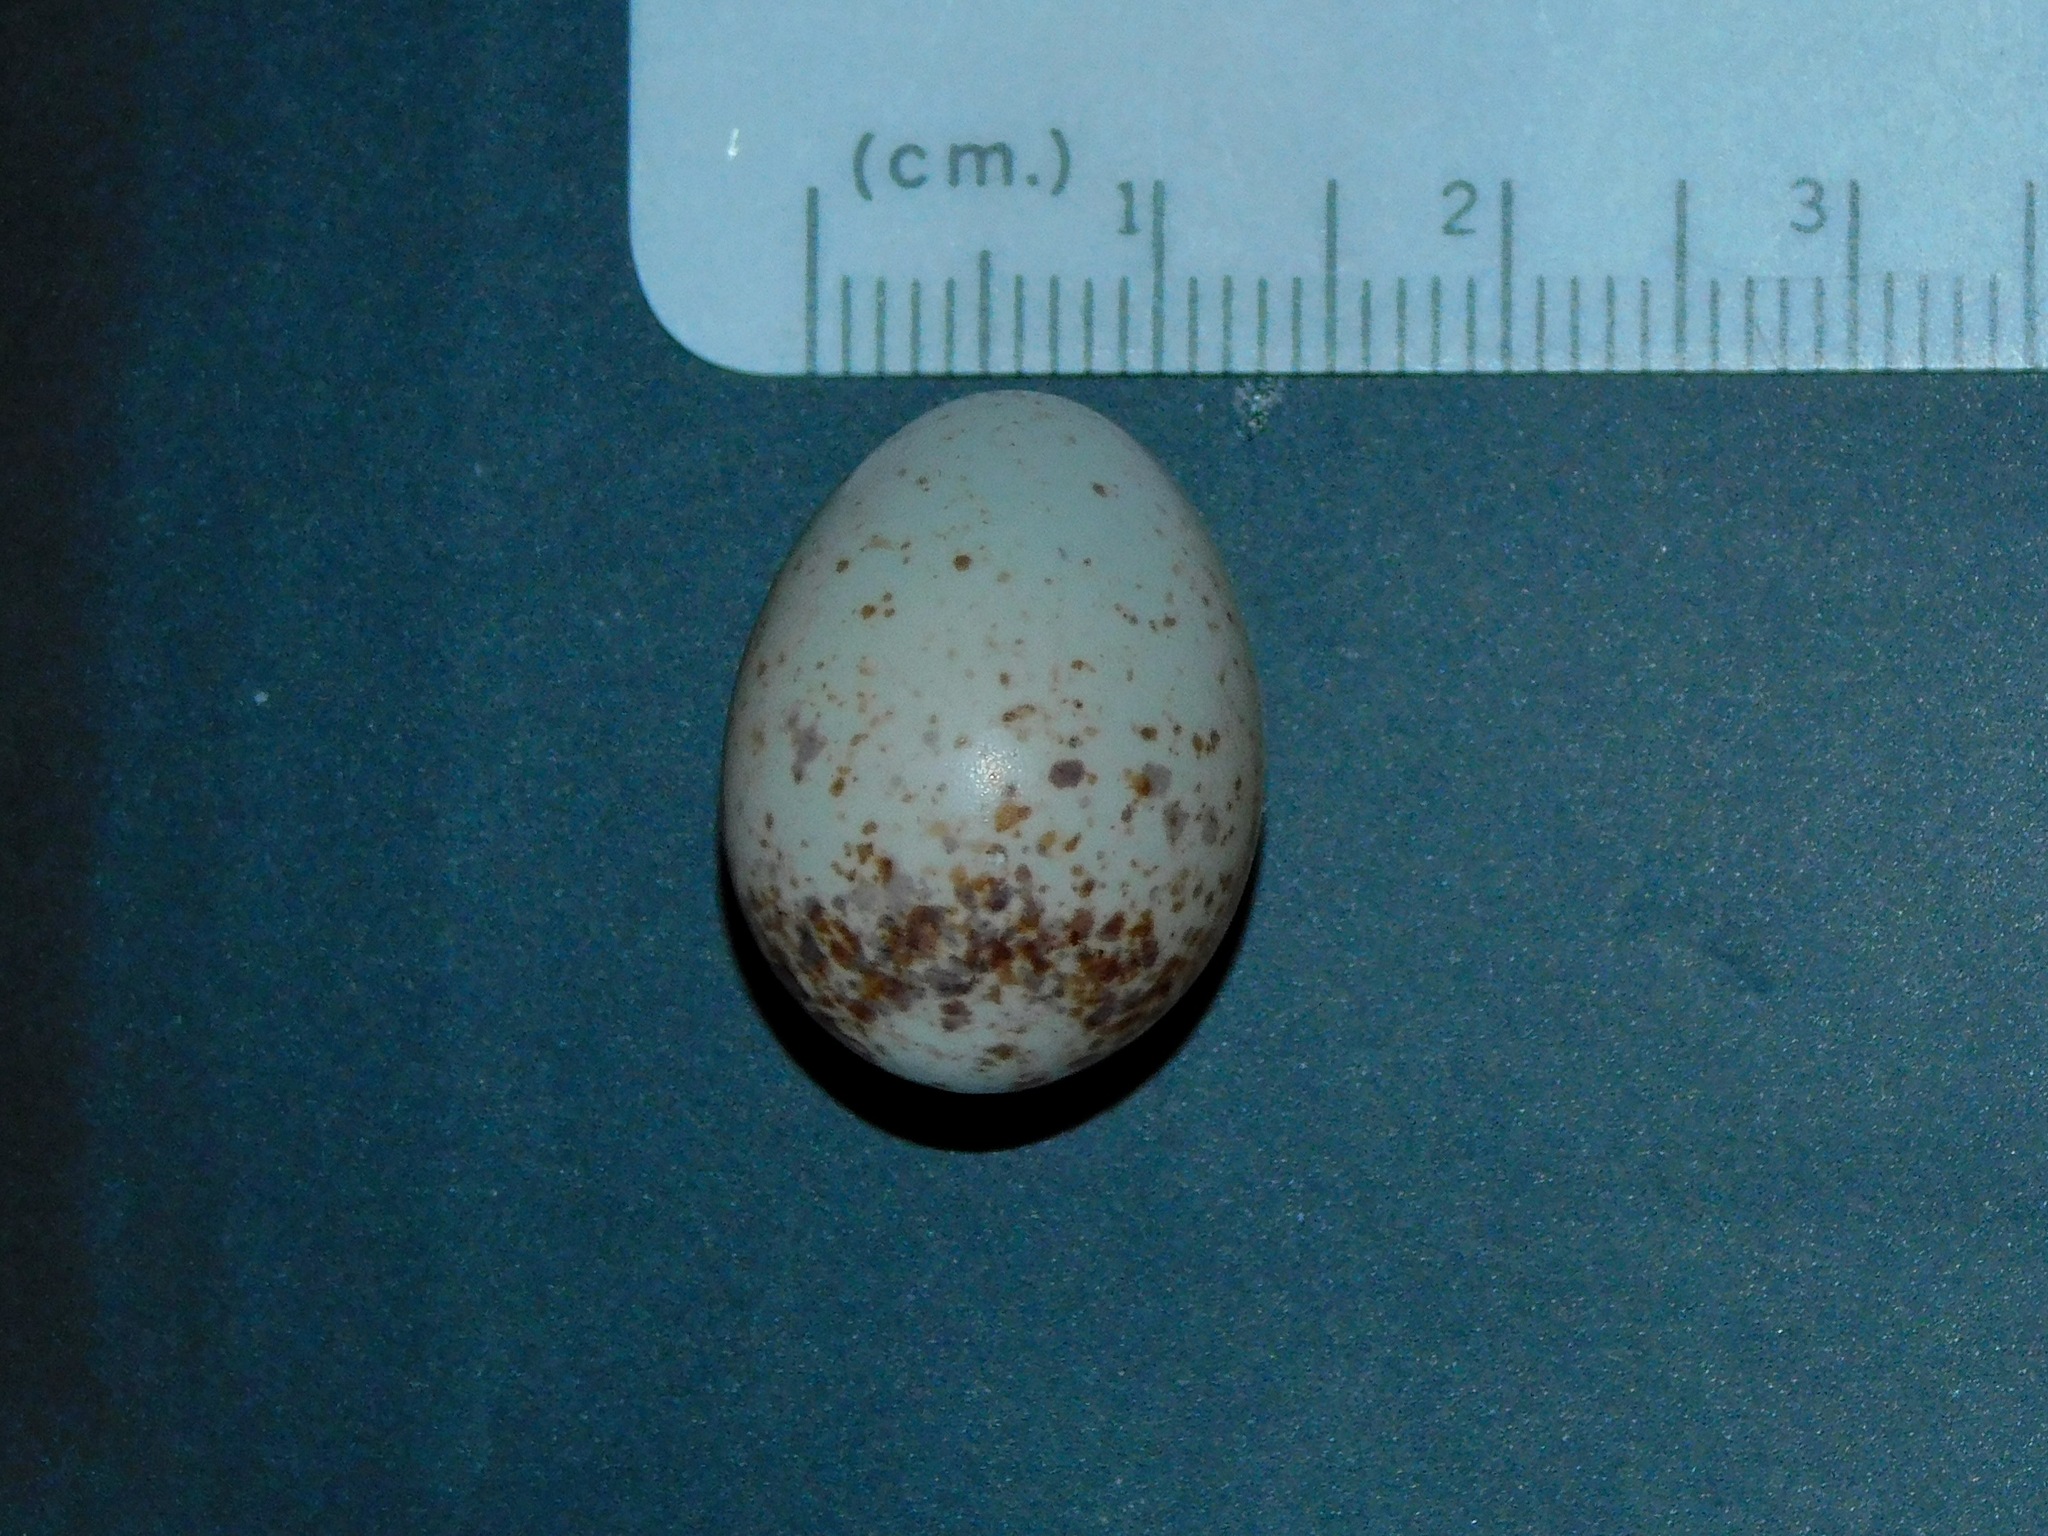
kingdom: Animalia
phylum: Chordata
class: Aves
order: Passeriformes
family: Troglodytidae
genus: Thryothorus
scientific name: Thryothorus ludovicianus
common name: Carolina wren
